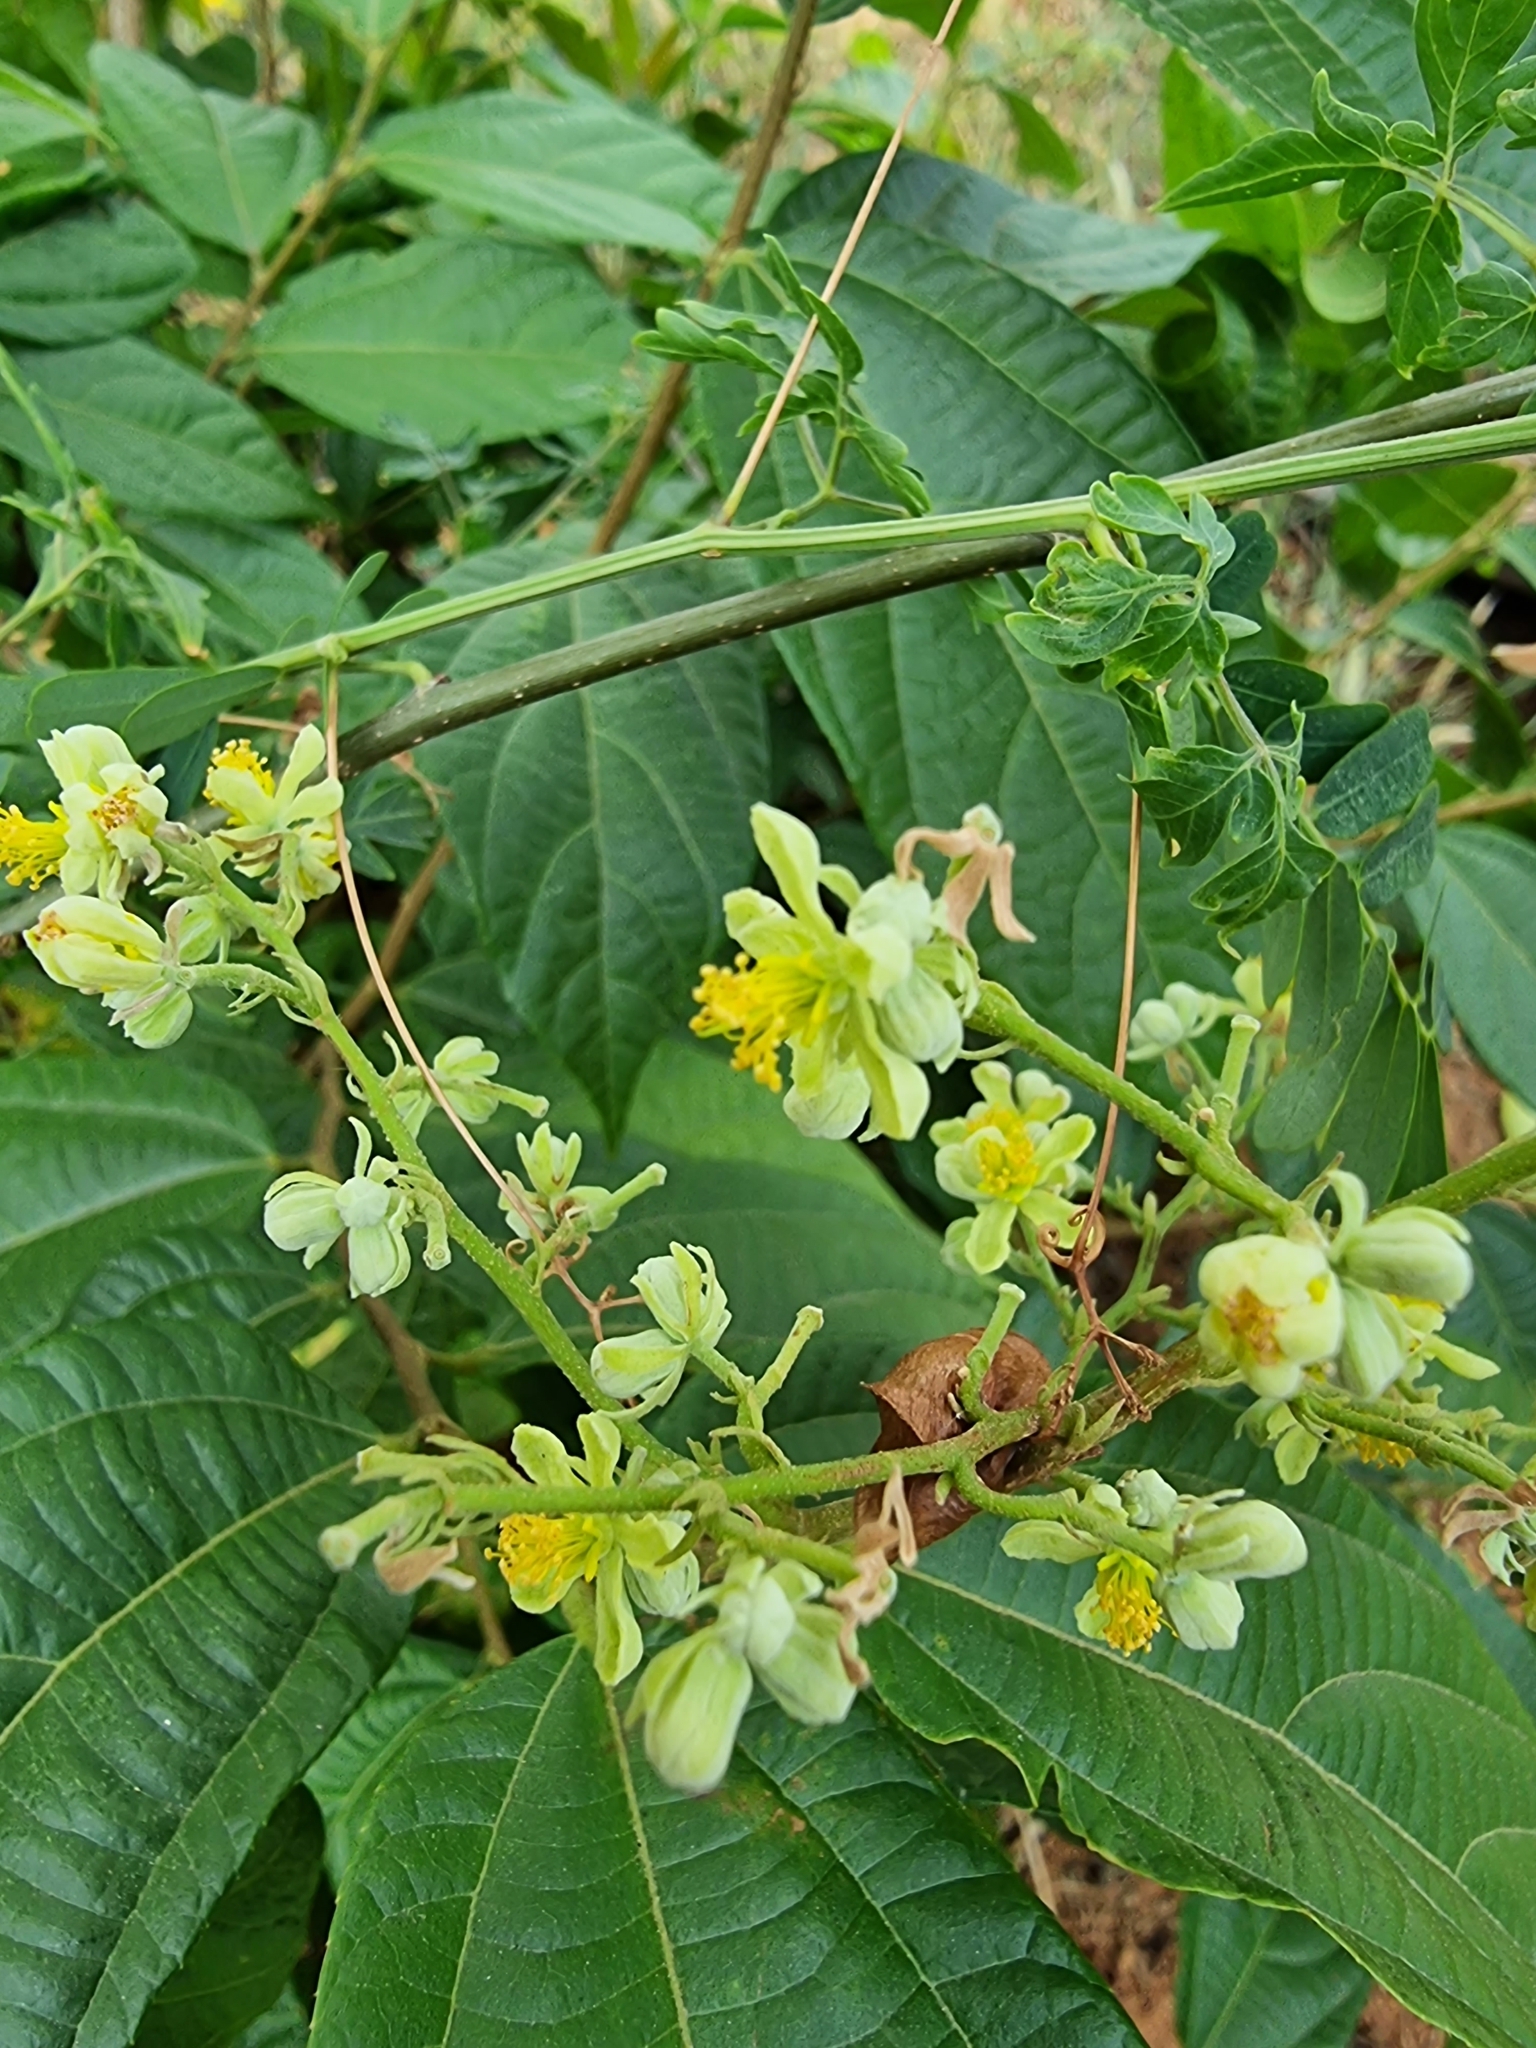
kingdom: Plantae
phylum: Tracheophyta
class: Magnoliopsida
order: Malvales
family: Malvaceae
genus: Microcos
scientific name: Microcos paniculata
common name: Microcos
